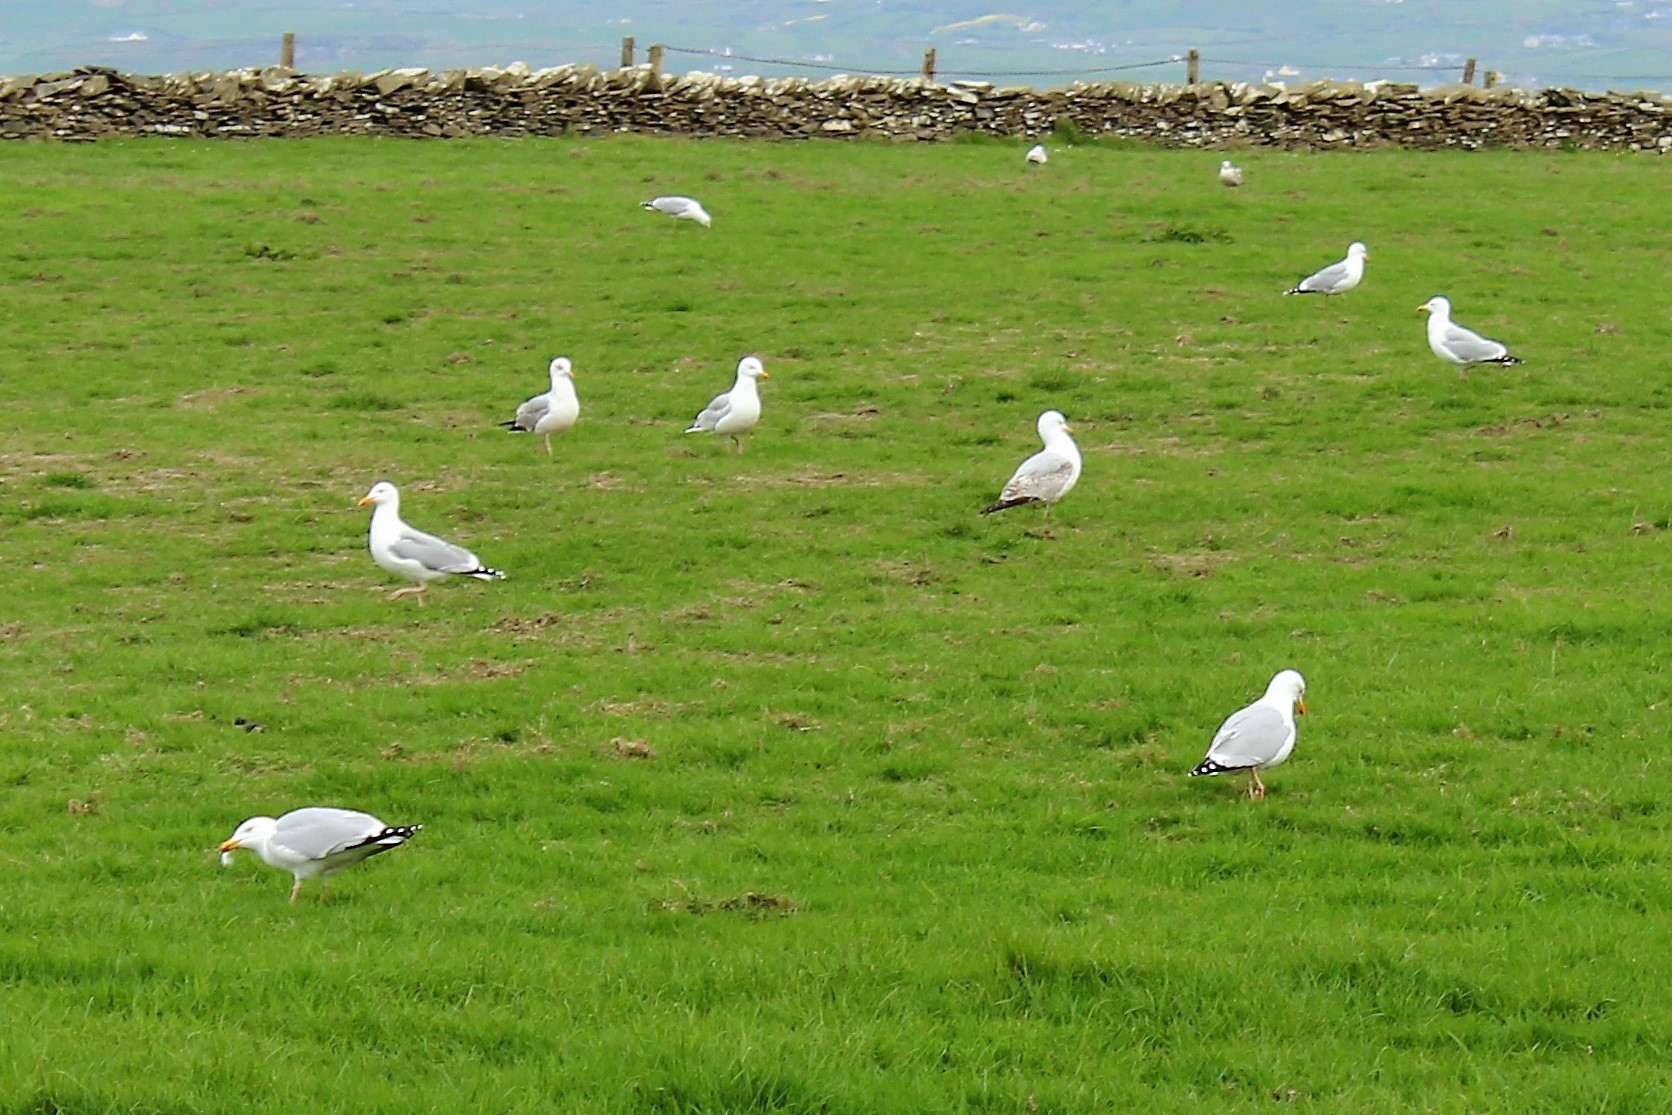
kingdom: Animalia
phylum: Chordata
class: Aves
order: Charadriiformes
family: Laridae
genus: Larus
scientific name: Larus argentatus
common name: Herring gull
